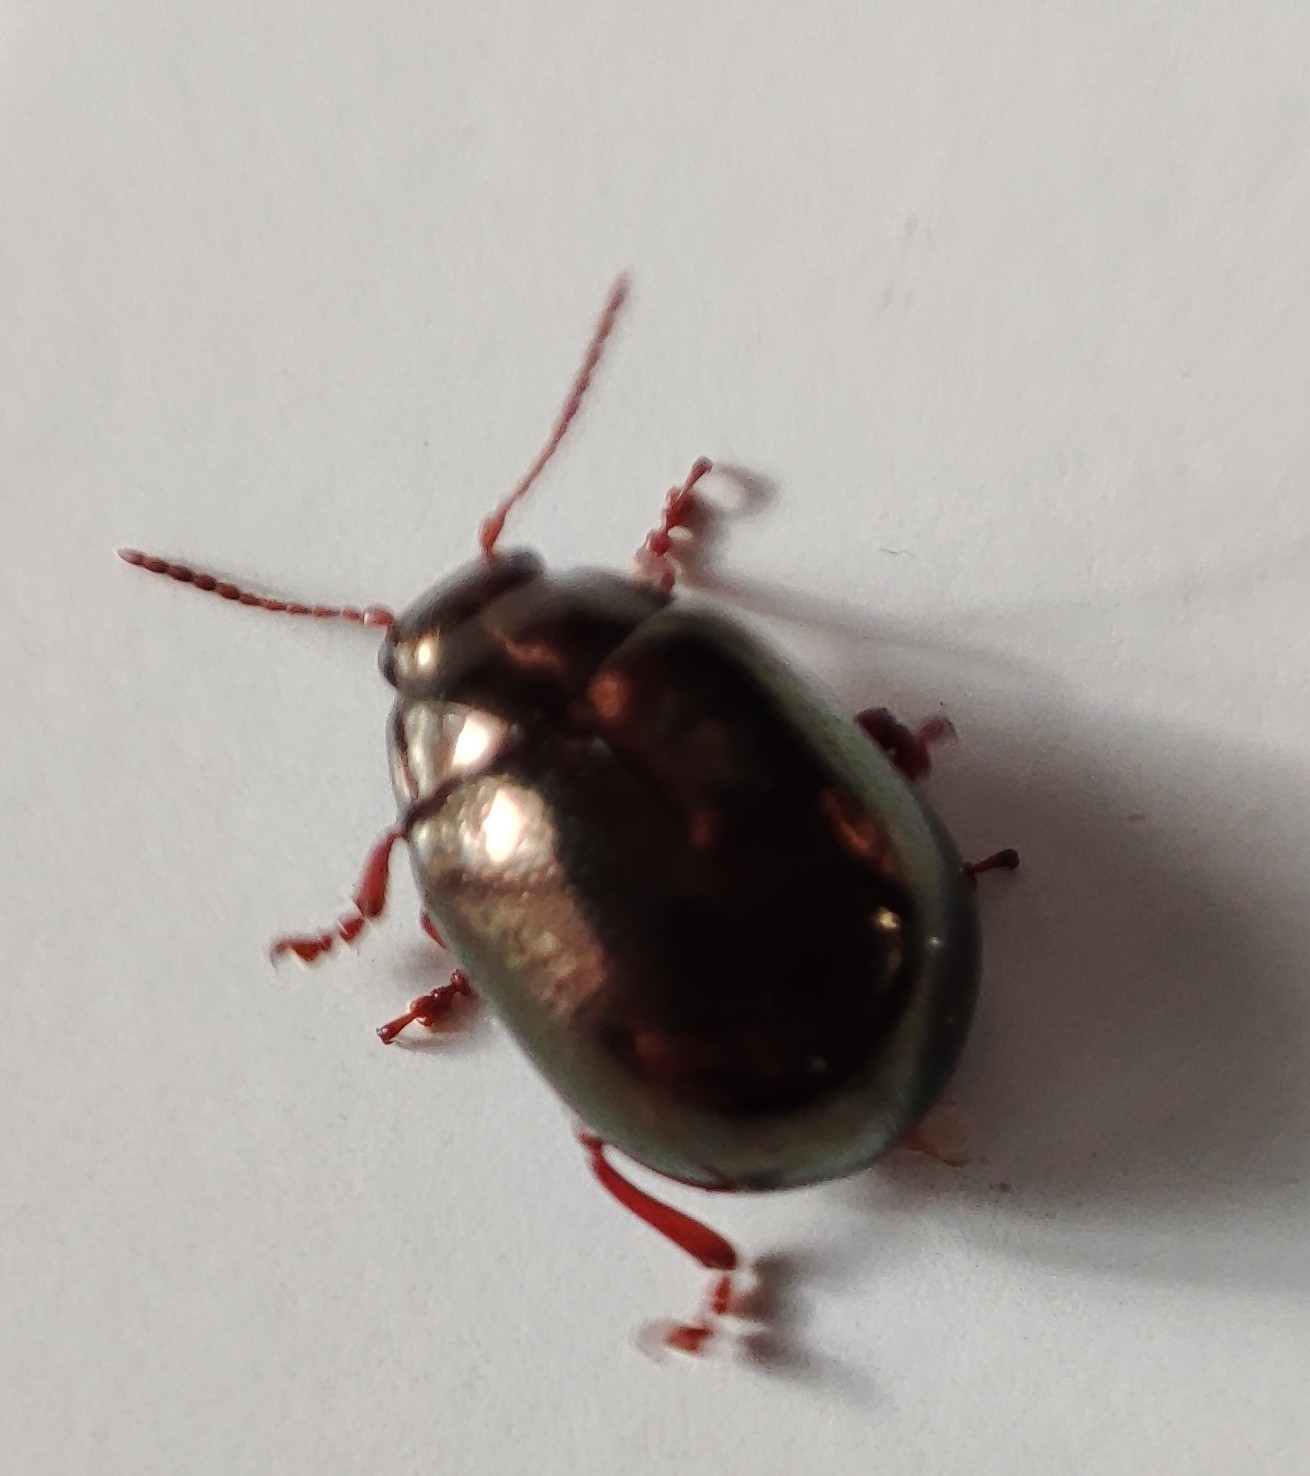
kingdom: Animalia
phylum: Arthropoda
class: Insecta
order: Coleoptera
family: Chrysomelidae
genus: Chrysolina
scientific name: Chrysolina bankii
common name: Leaf beetle
